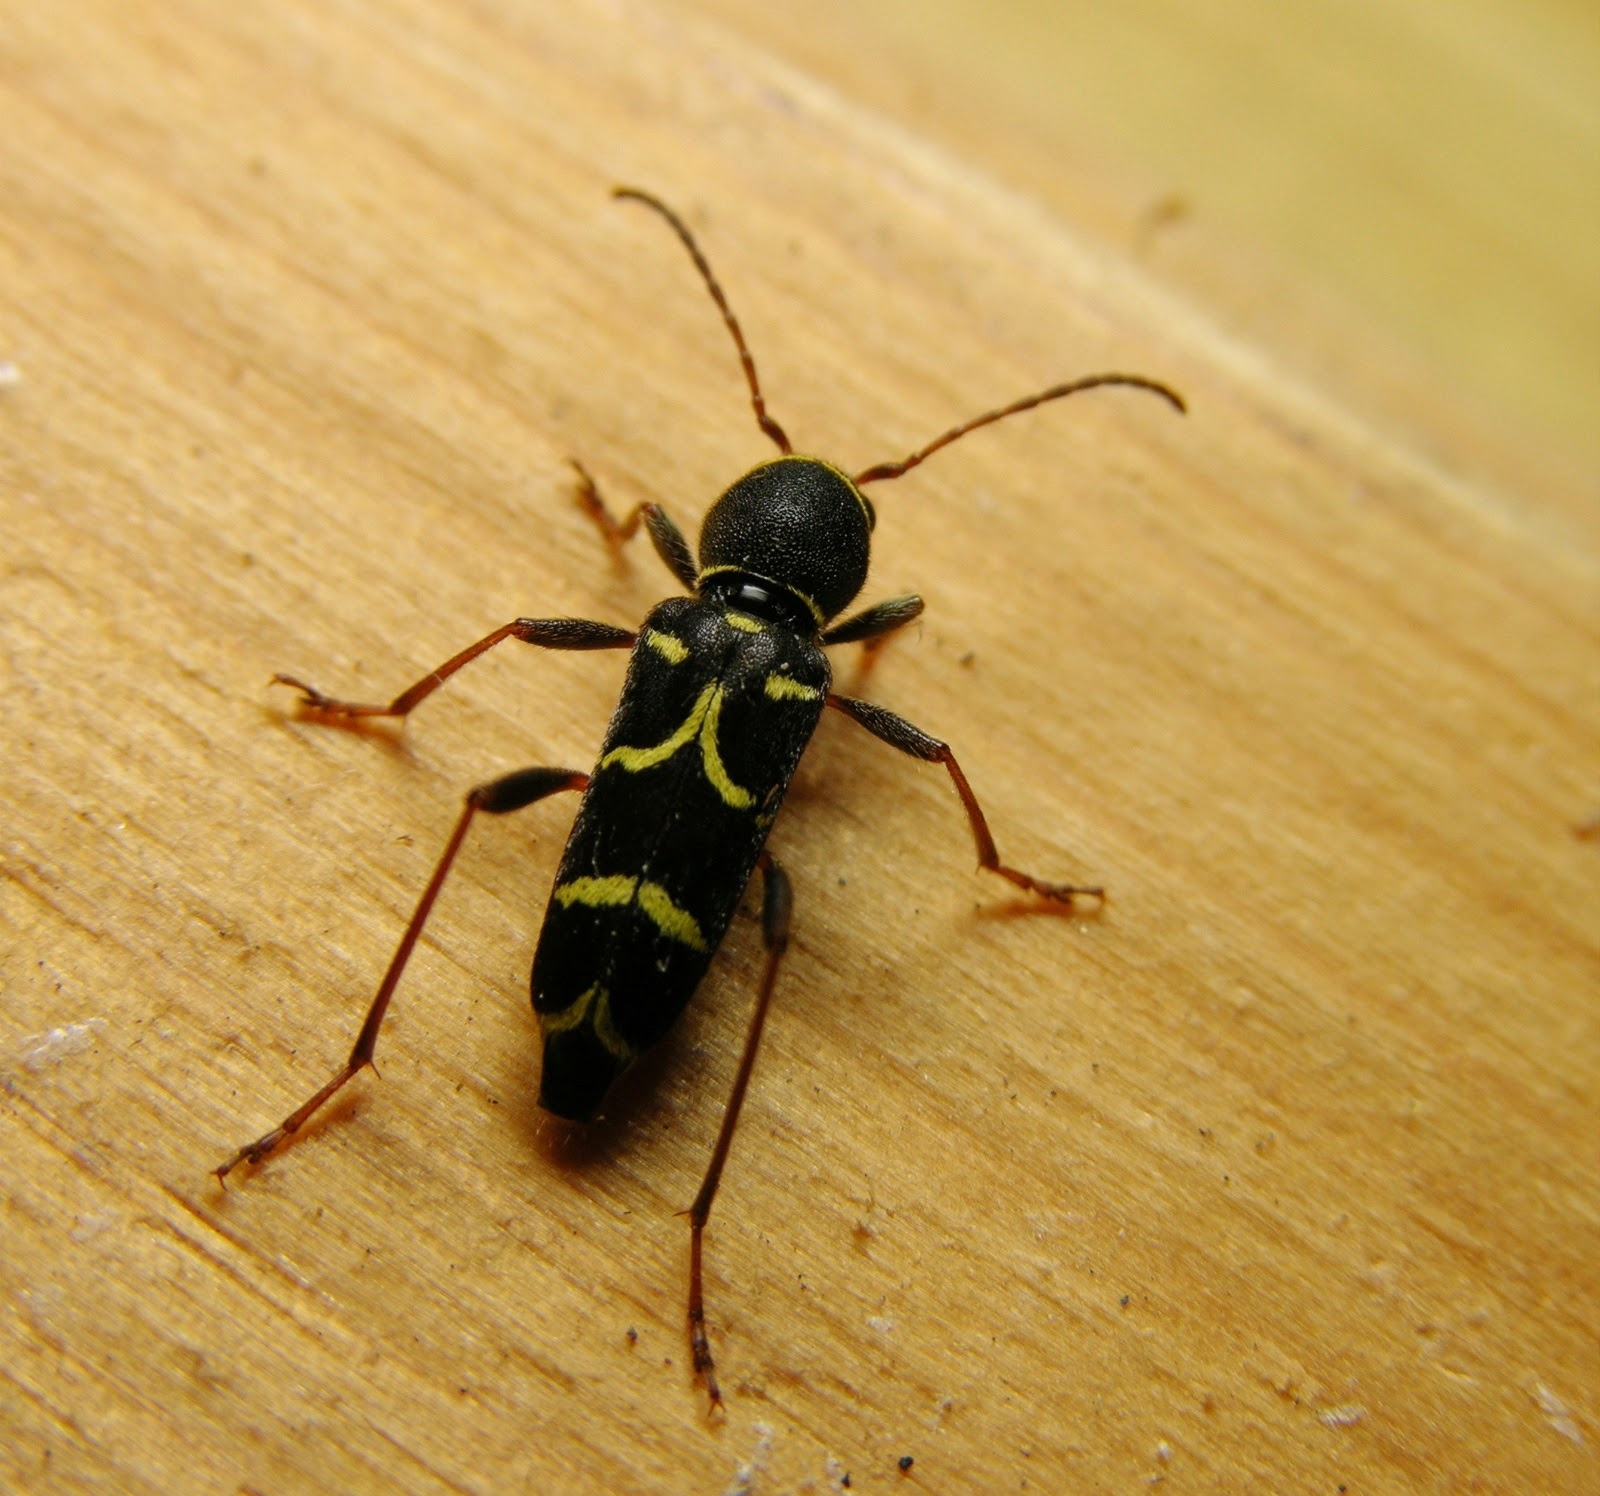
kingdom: Animalia
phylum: Arthropoda
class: Insecta
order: Coleoptera
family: Cerambycidae
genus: Clytus
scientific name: Clytus lama
